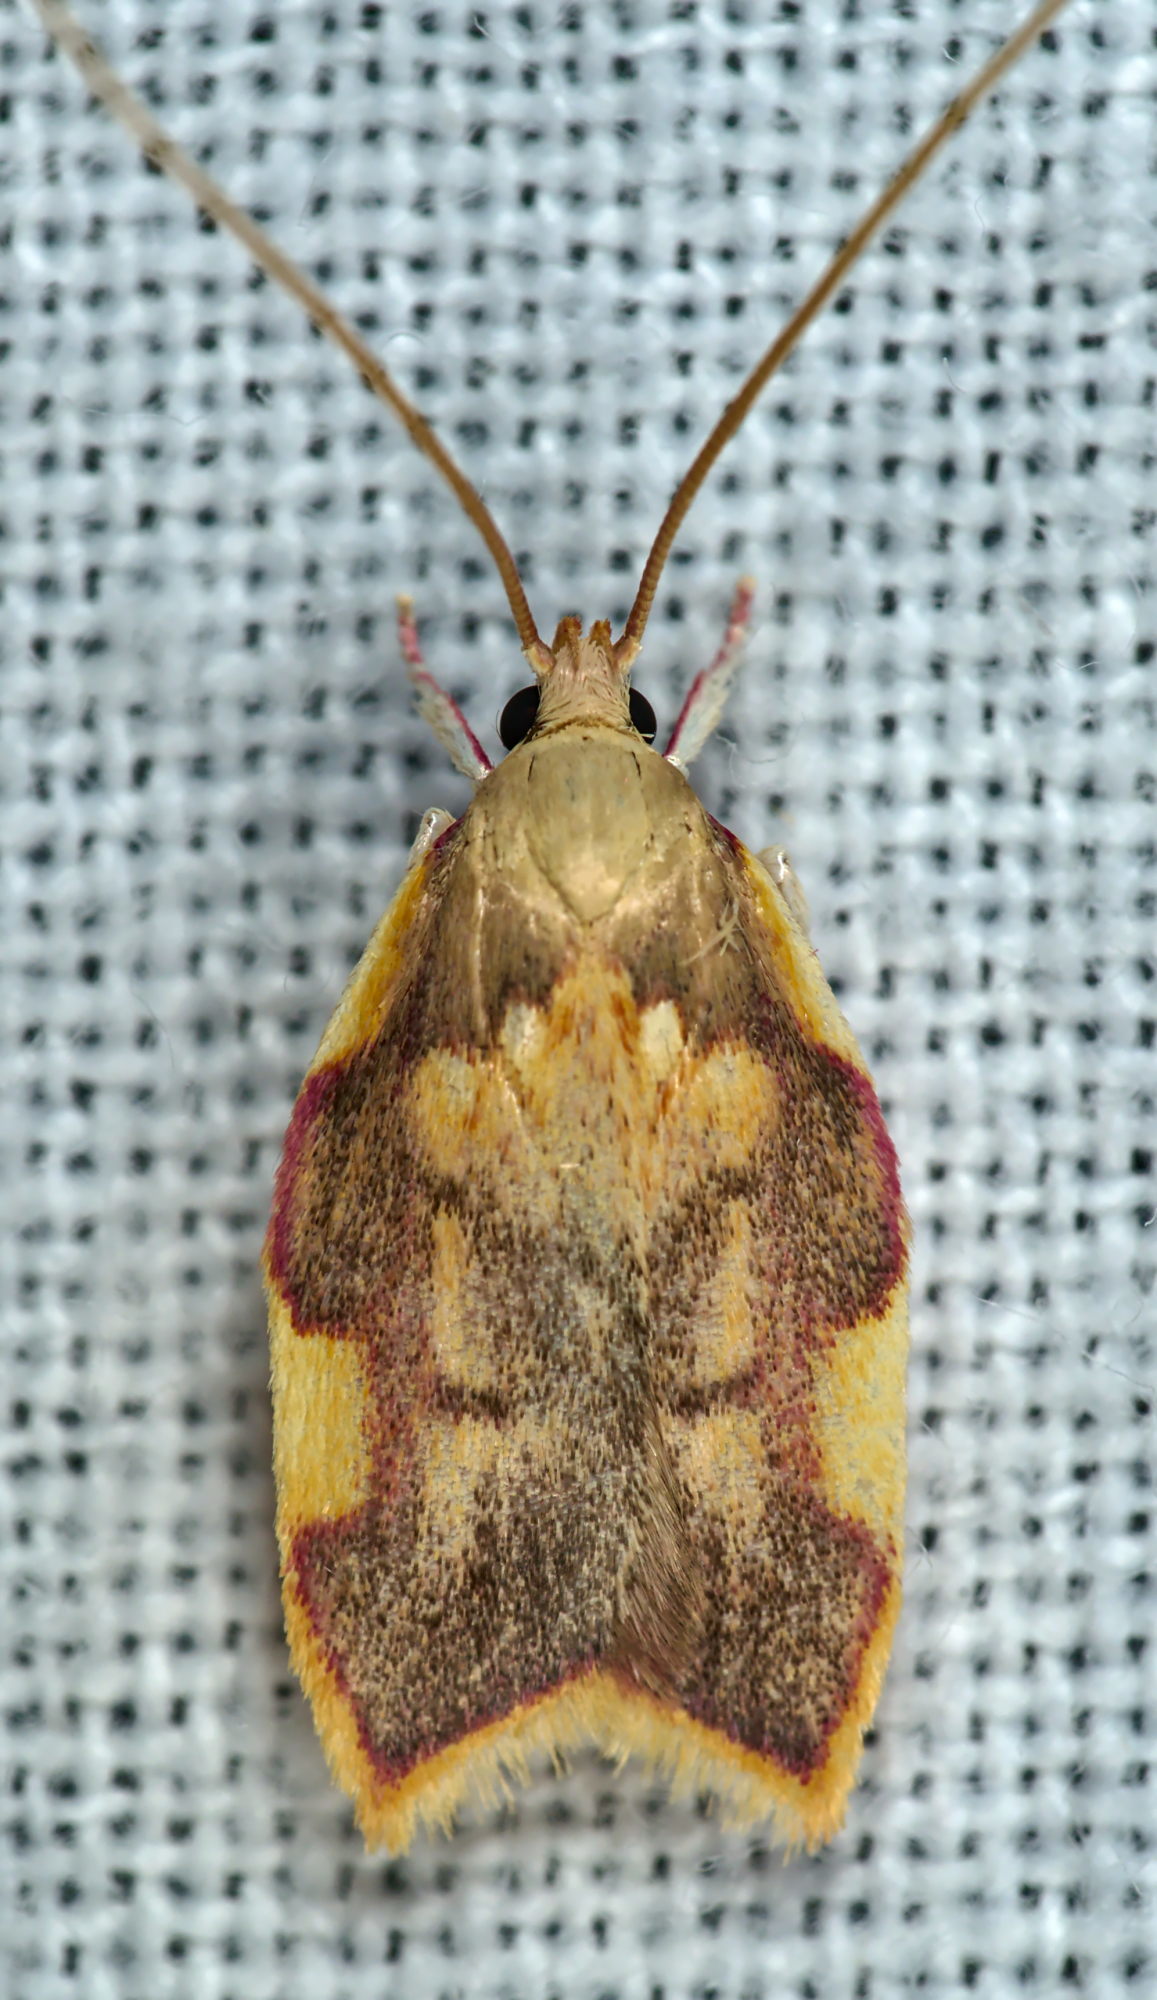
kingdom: Animalia
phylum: Arthropoda
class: Insecta
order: Lepidoptera
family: Peleopodidae
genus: Carcina
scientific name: Carcina quercana
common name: Moth
